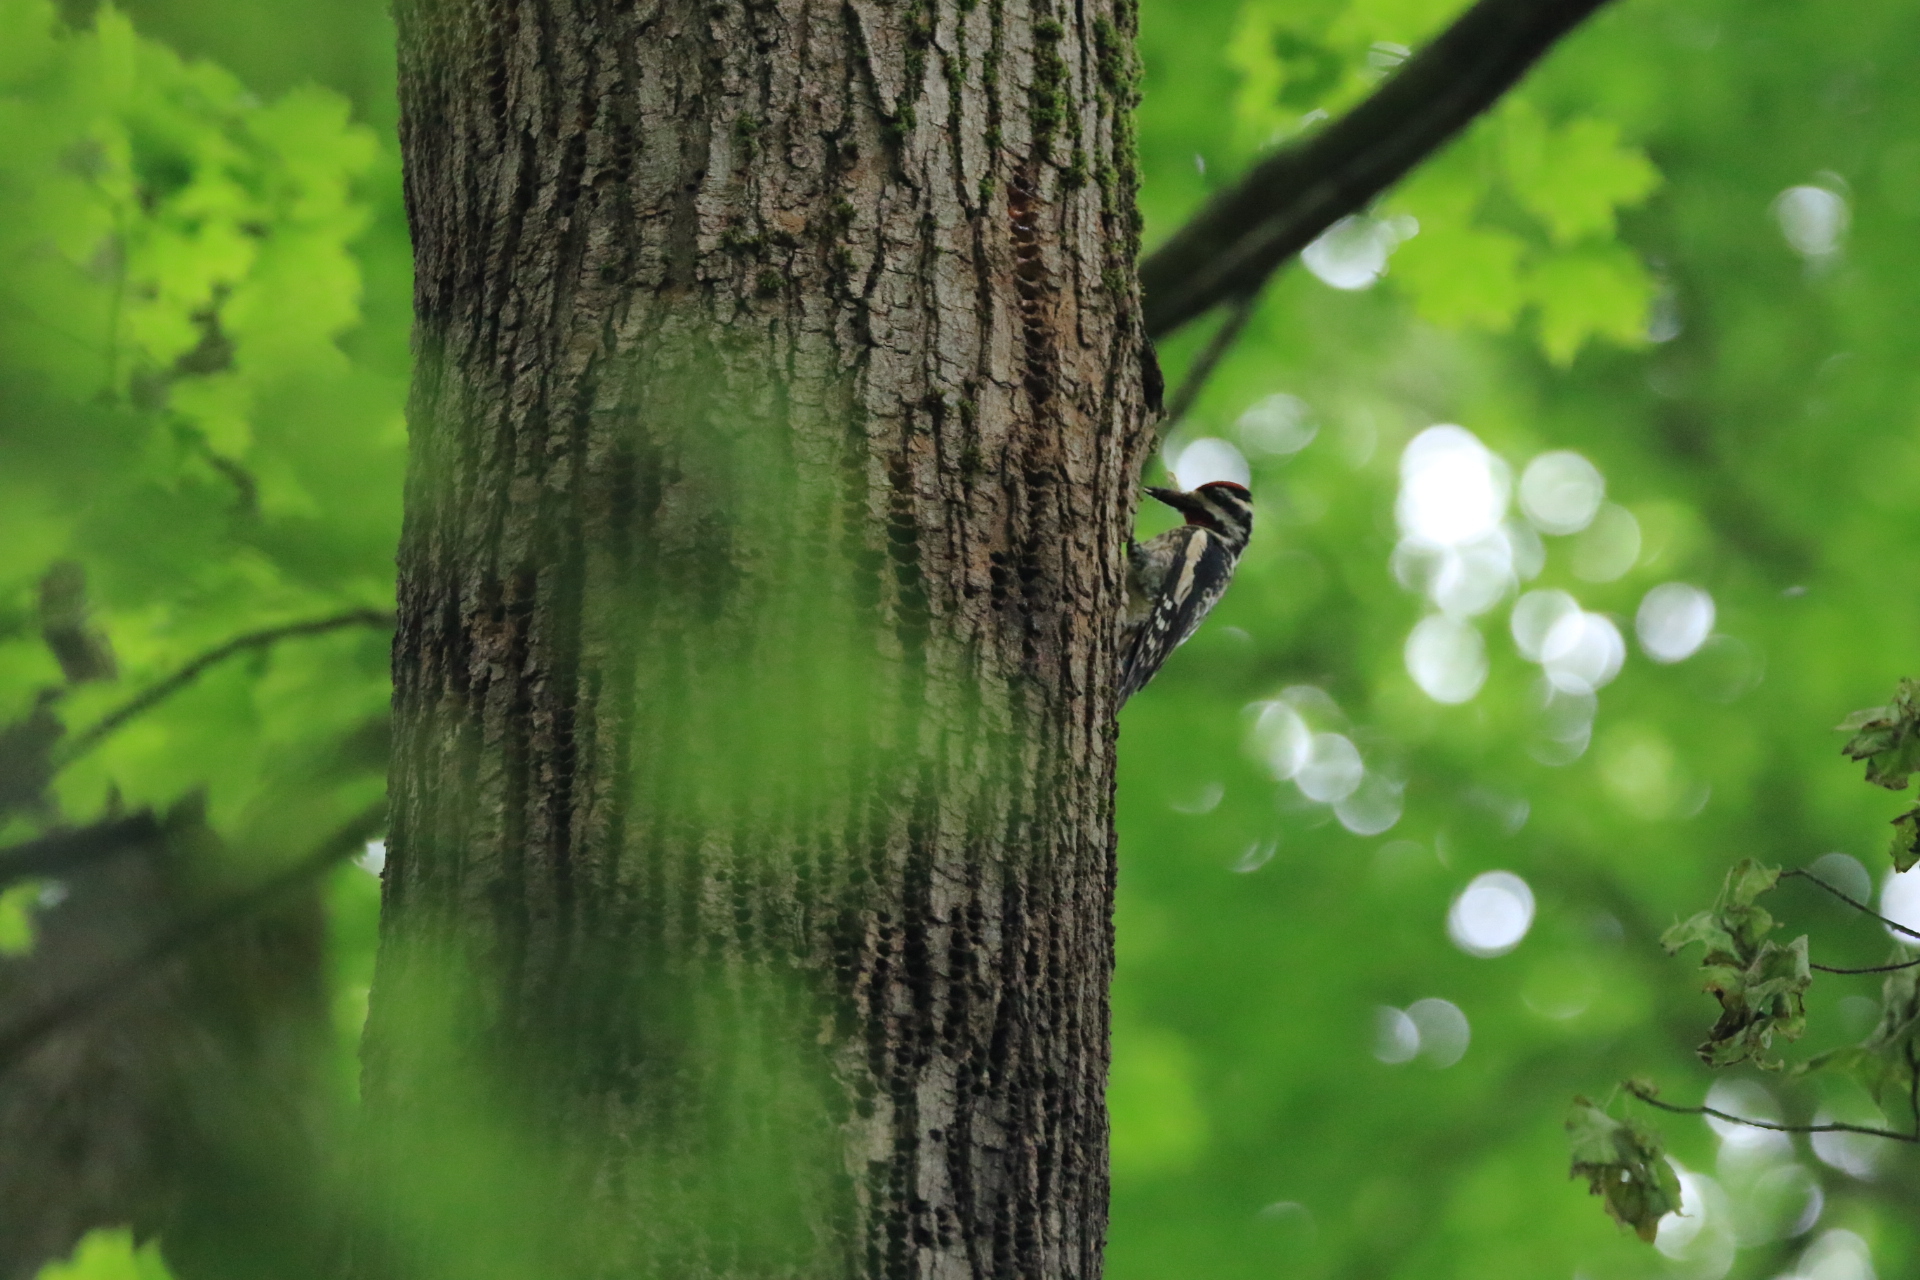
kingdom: Animalia
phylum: Chordata
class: Aves
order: Piciformes
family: Picidae
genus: Sphyrapicus
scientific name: Sphyrapicus varius
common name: Yellow-bellied sapsucker
